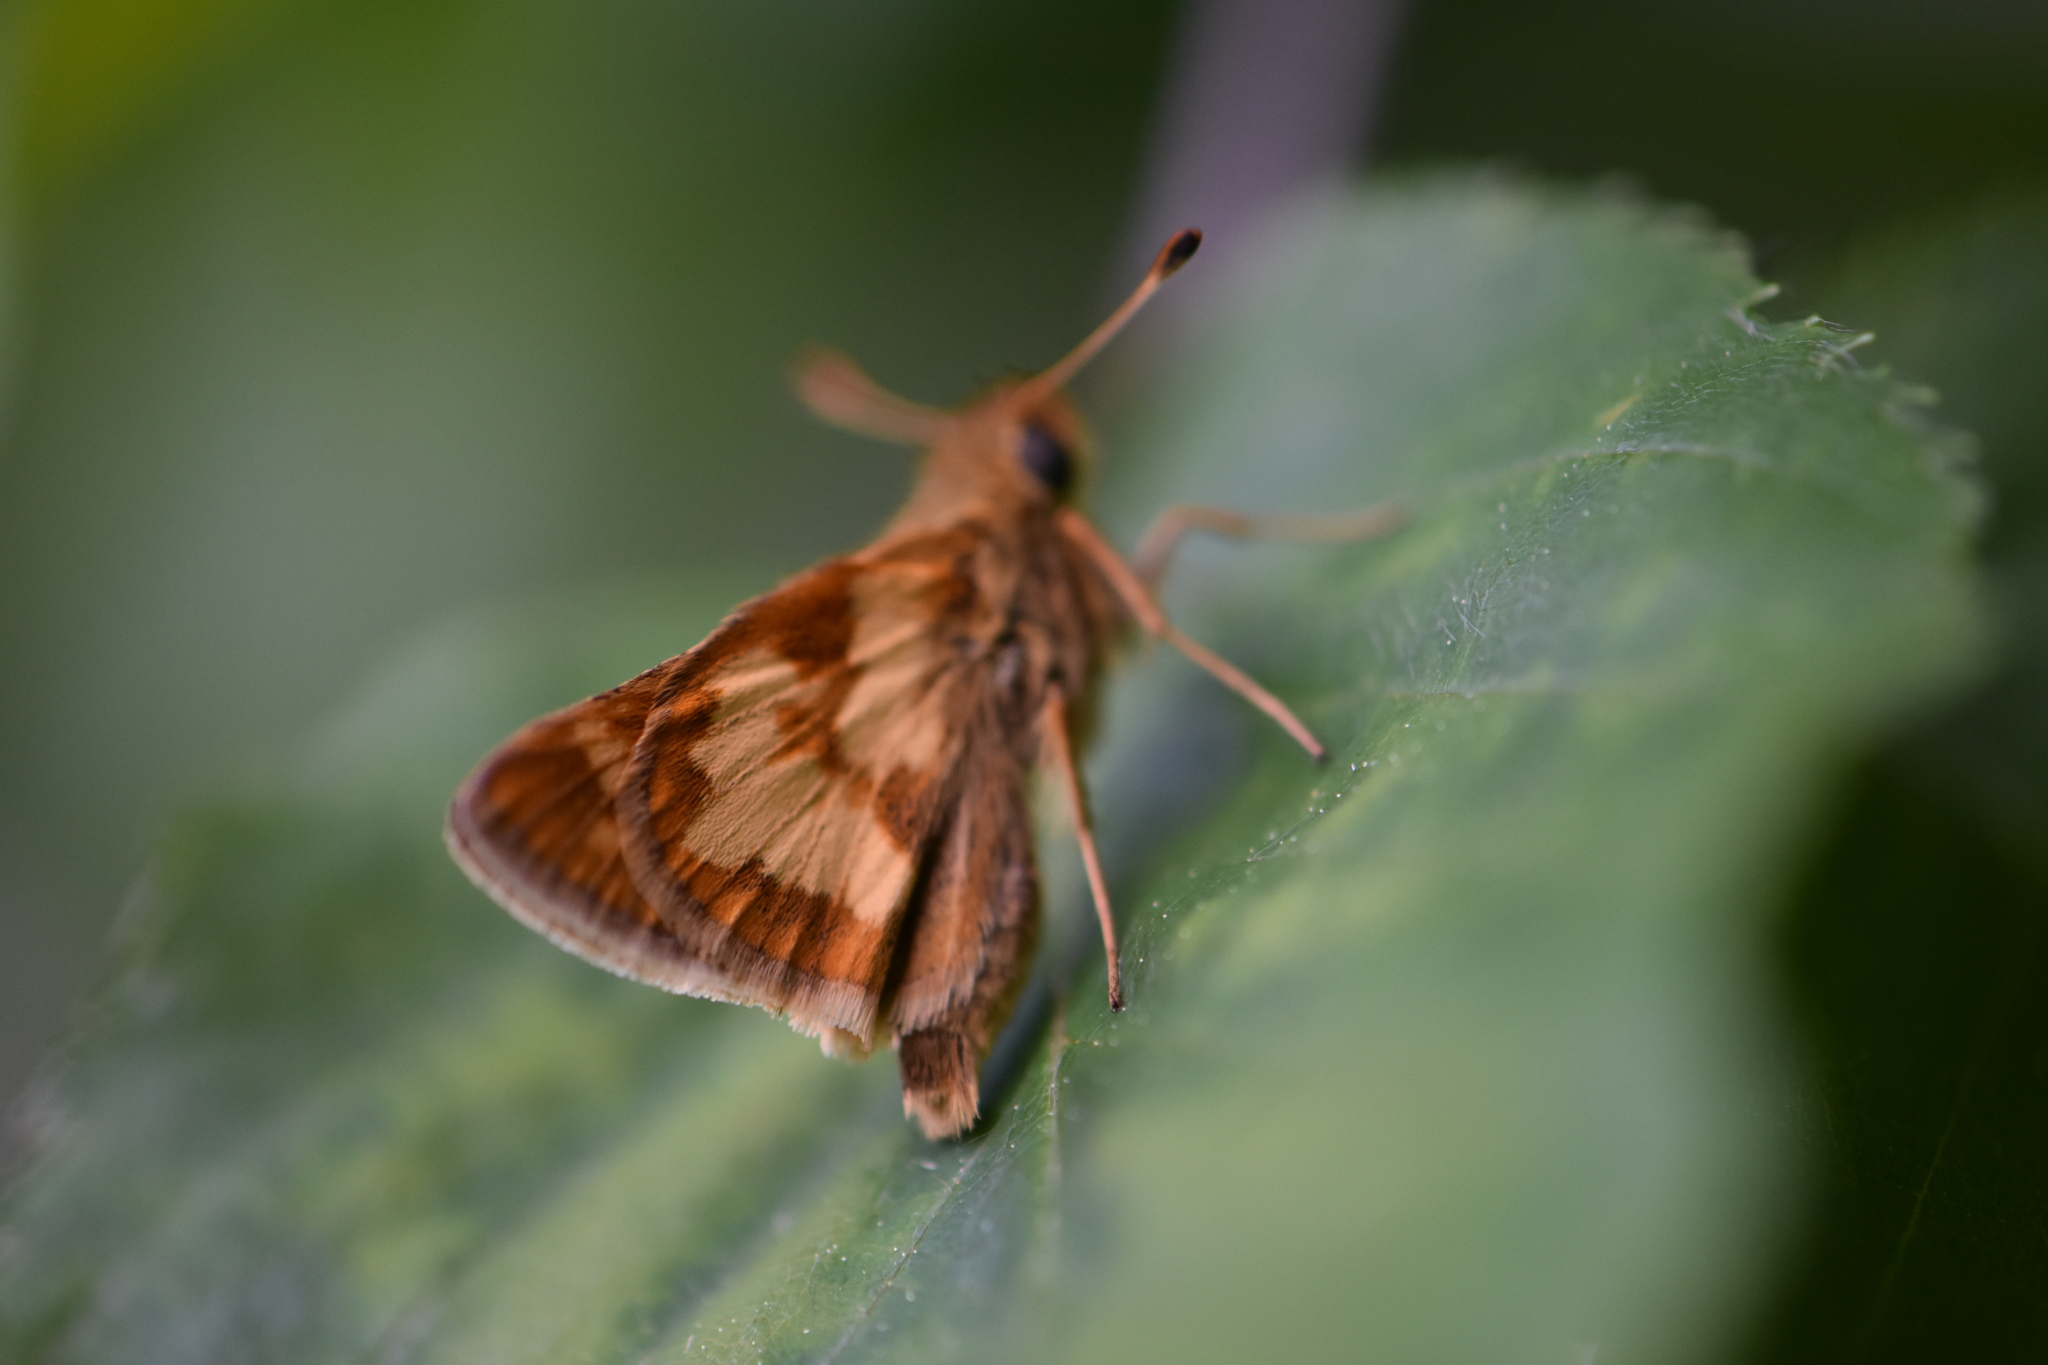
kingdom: Animalia
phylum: Arthropoda
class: Insecta
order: Lepidoptera
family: Hesperiidae
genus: Polites
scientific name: Polites coras
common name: Peck's skipper
